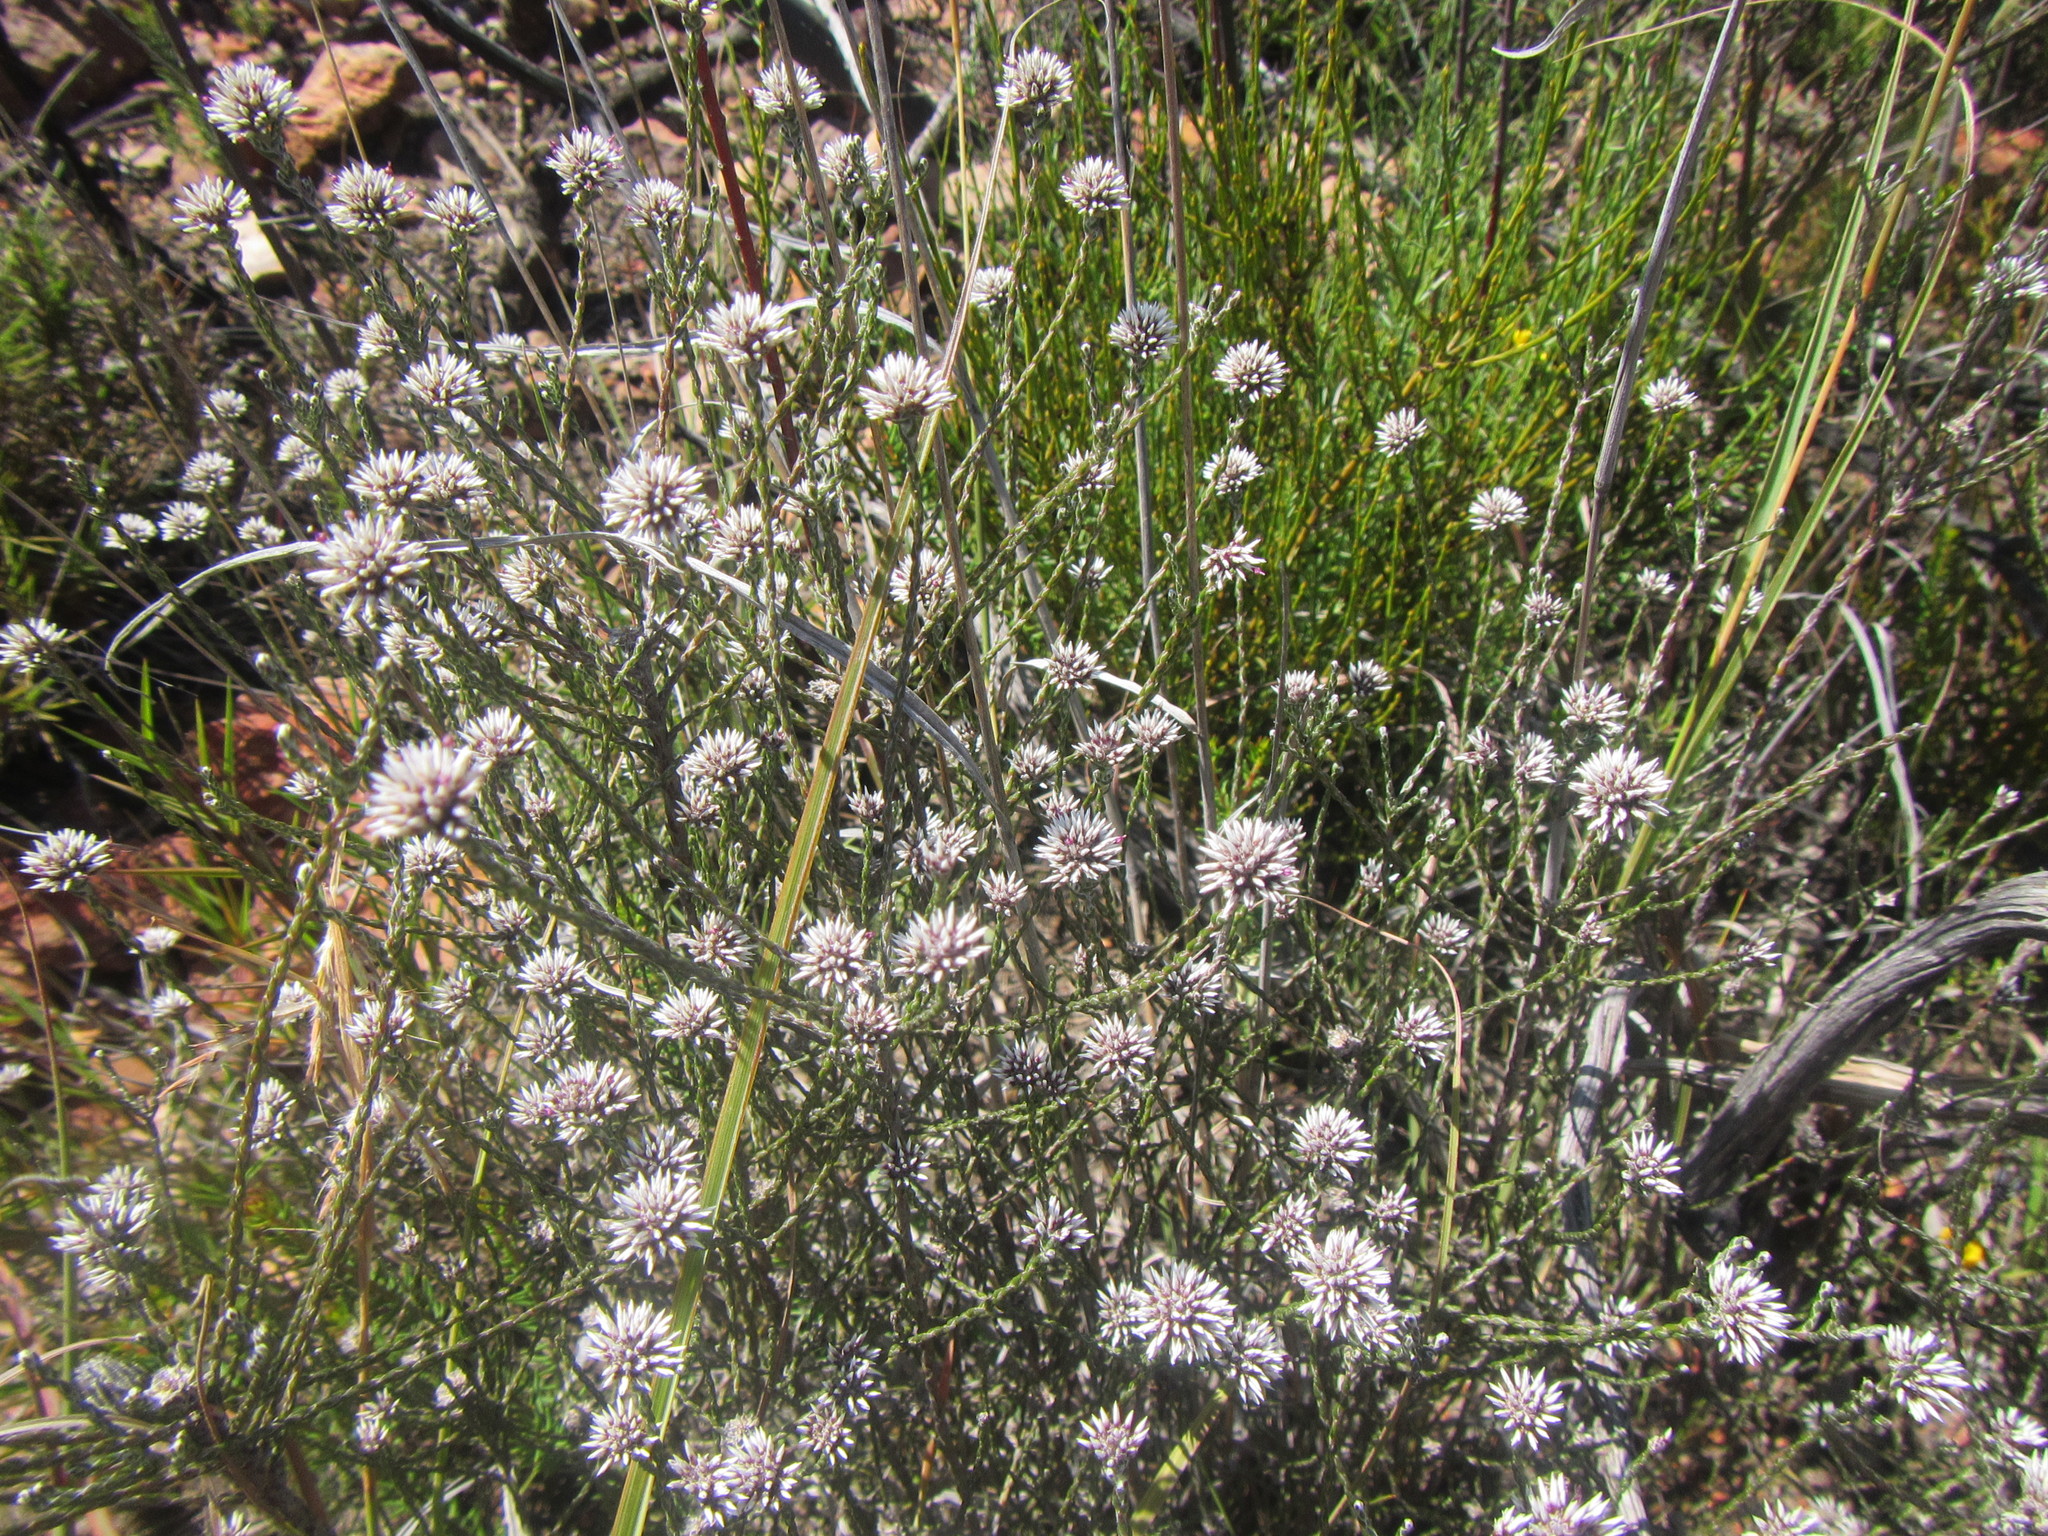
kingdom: Plantae
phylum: Tracheophyta
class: Magnoliopsida
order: Asterales
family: Asteraceae
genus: Stoebe
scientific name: Stoebe microphylla
